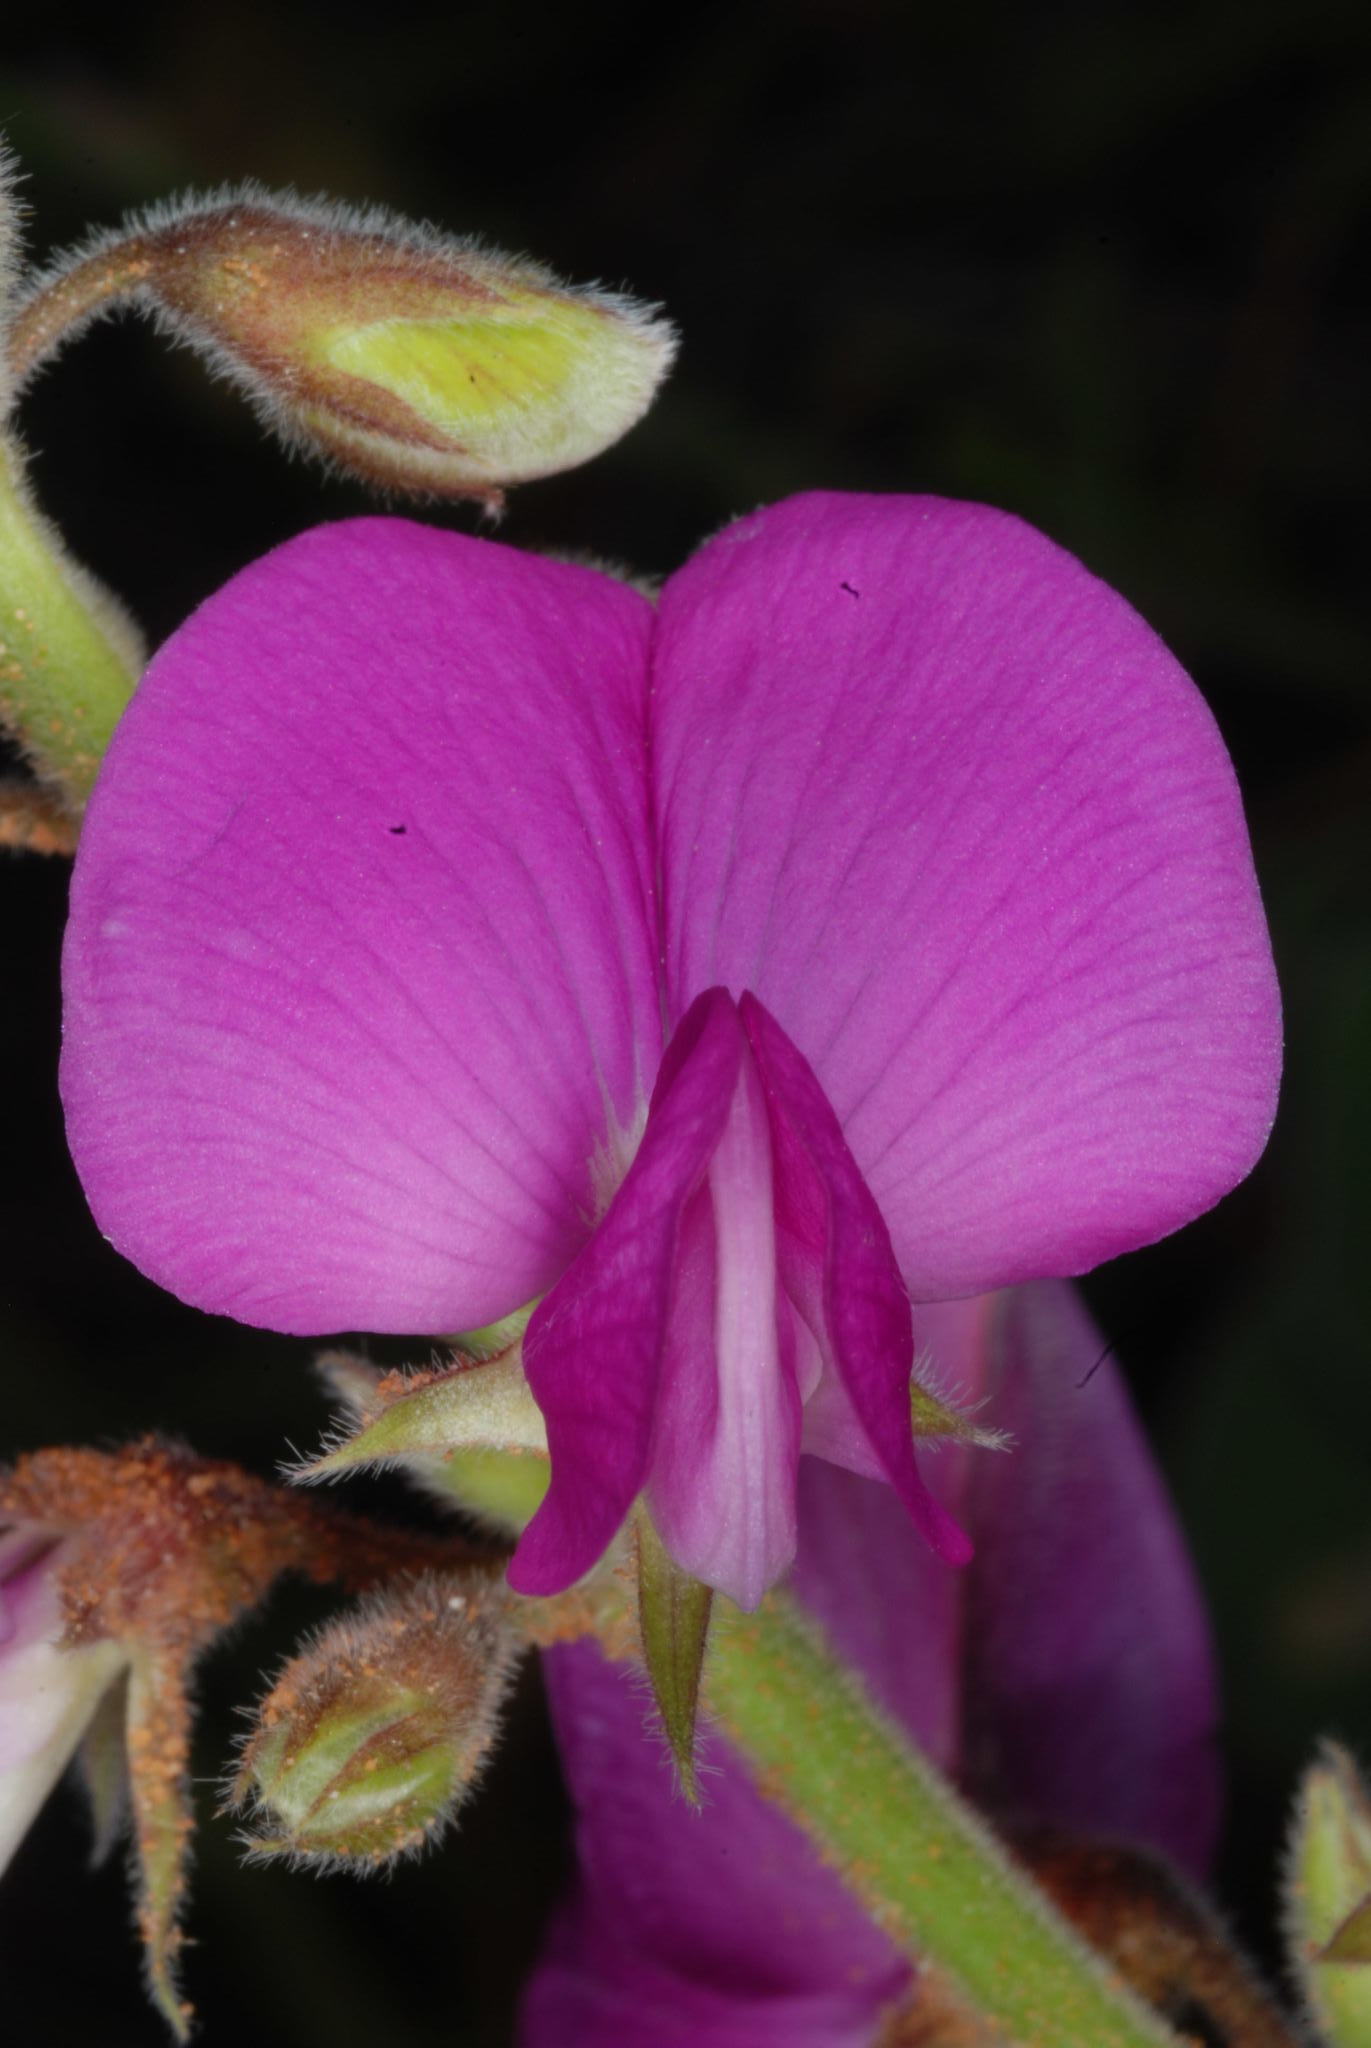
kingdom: Plantae
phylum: Tracheophyta
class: Magnoliopsida
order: Fabales
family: Fabaceae
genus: Tephrosia
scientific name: Tephrosia lindheimeri
